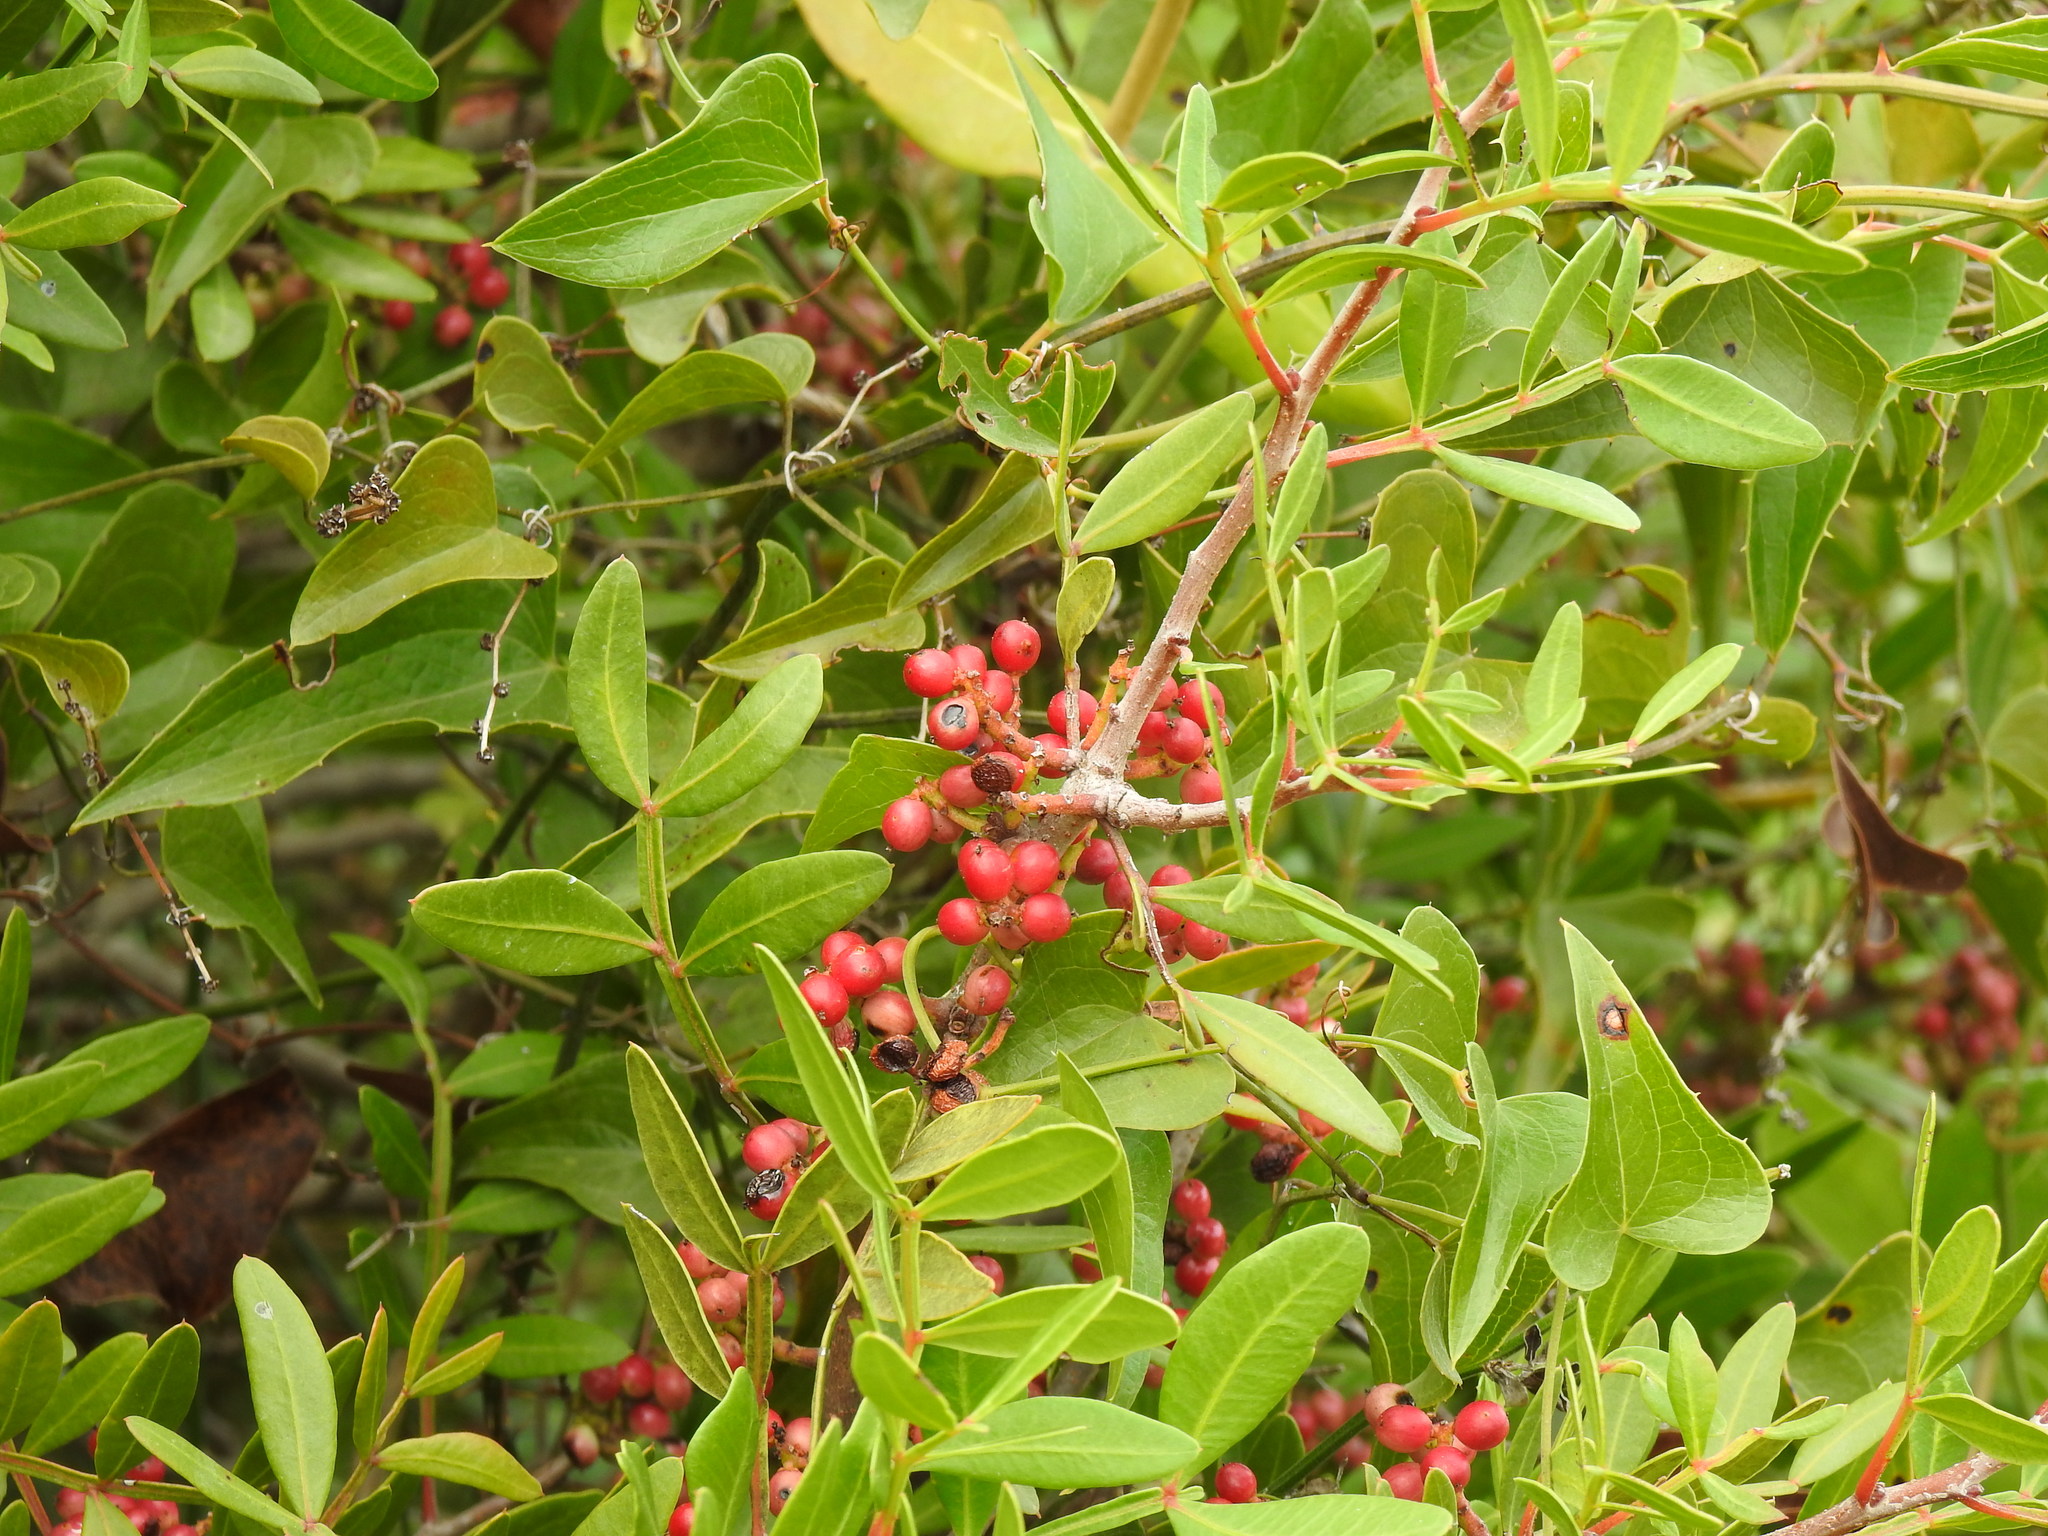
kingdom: Plantae
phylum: Tracheophyta
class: Magnoliopsida
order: Sapindales
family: Anacardiaceae
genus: Pistacia
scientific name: Pistacia lentiscus
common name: Lentisk
